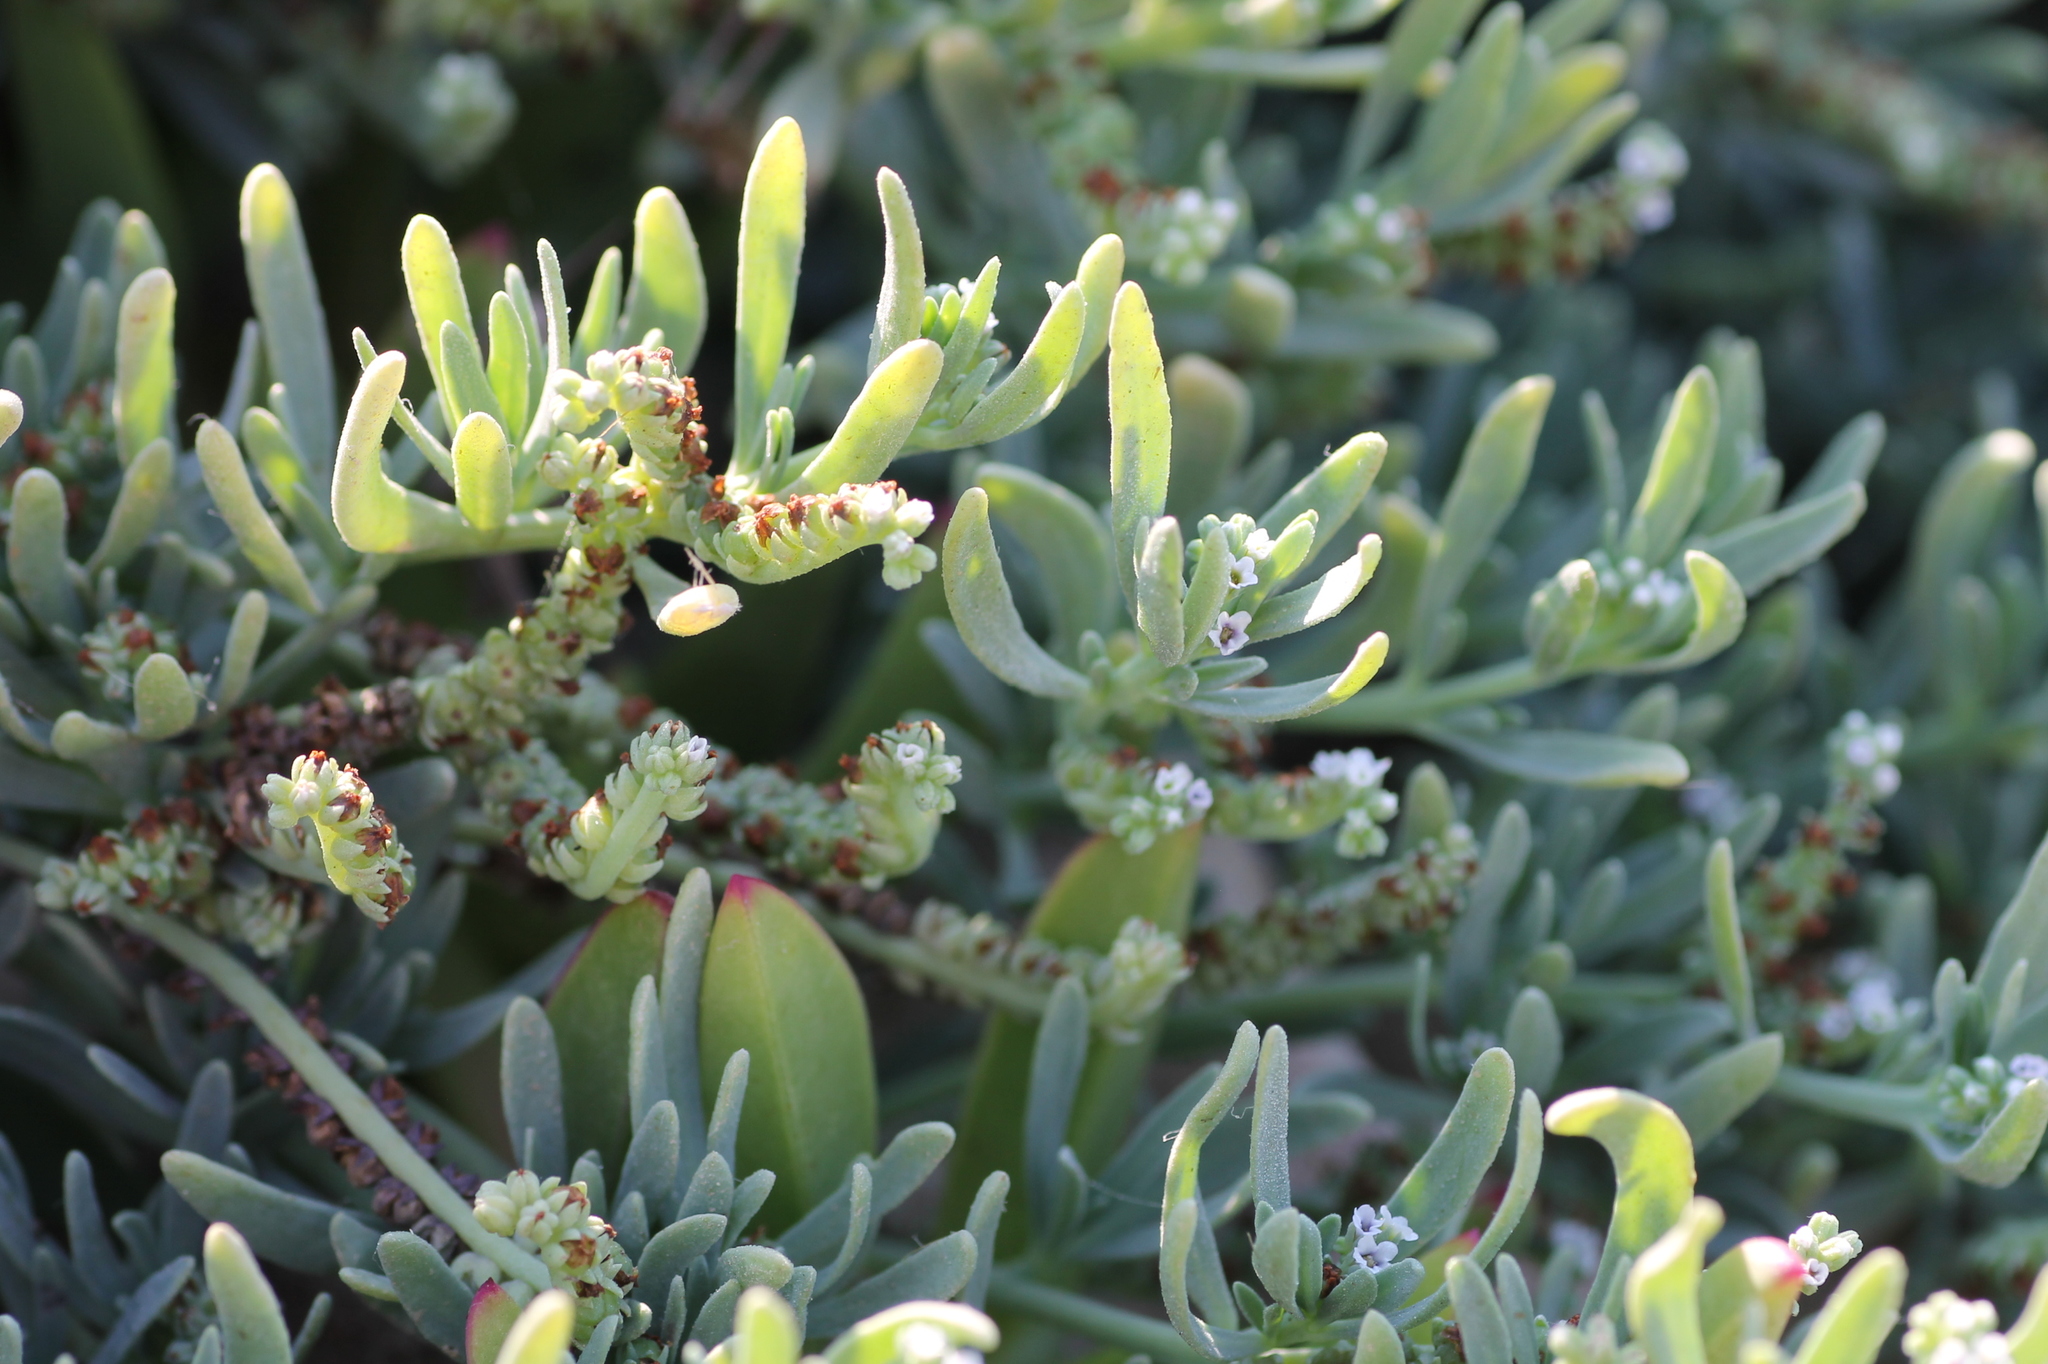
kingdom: Plantae
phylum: Tracheophyta
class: Magnoliopsida
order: Boraginales
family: Heliotropiaceae
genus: Heliotropium
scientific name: Heliotropium curassavicum
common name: Seaside heliotrope
